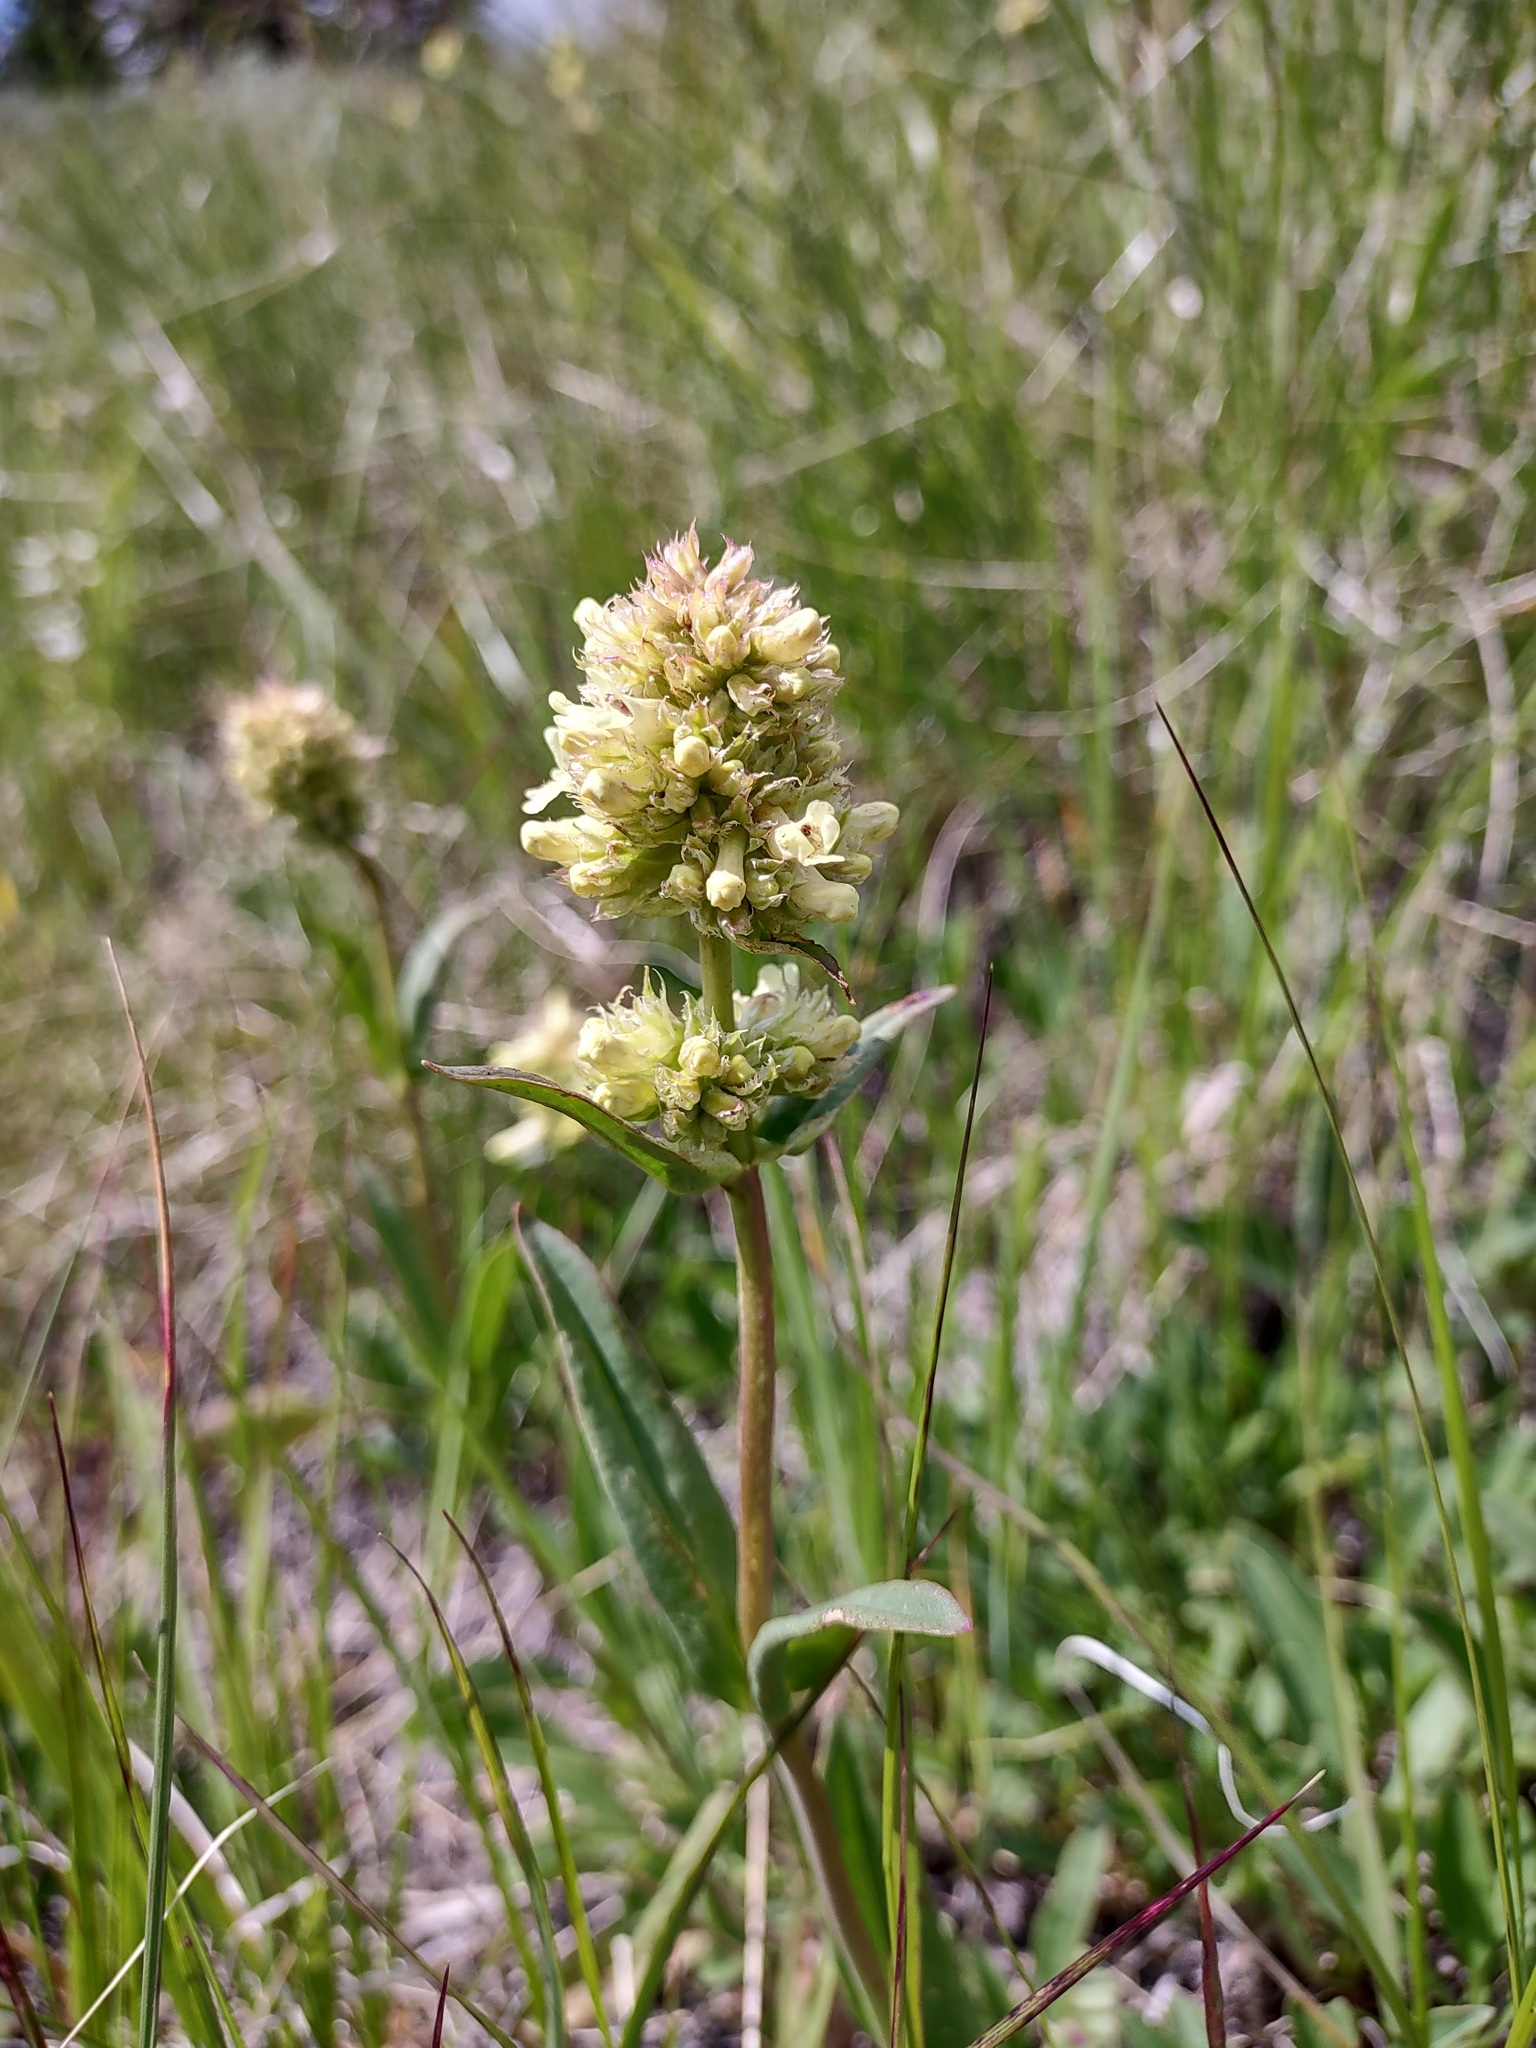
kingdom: Plantae
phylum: Tracheophyta
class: Magnoliopsida
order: Lamiales
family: Plantaginaceae
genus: Penstemon
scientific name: Penstemon confertus
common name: Lesser yellow beardtongue
